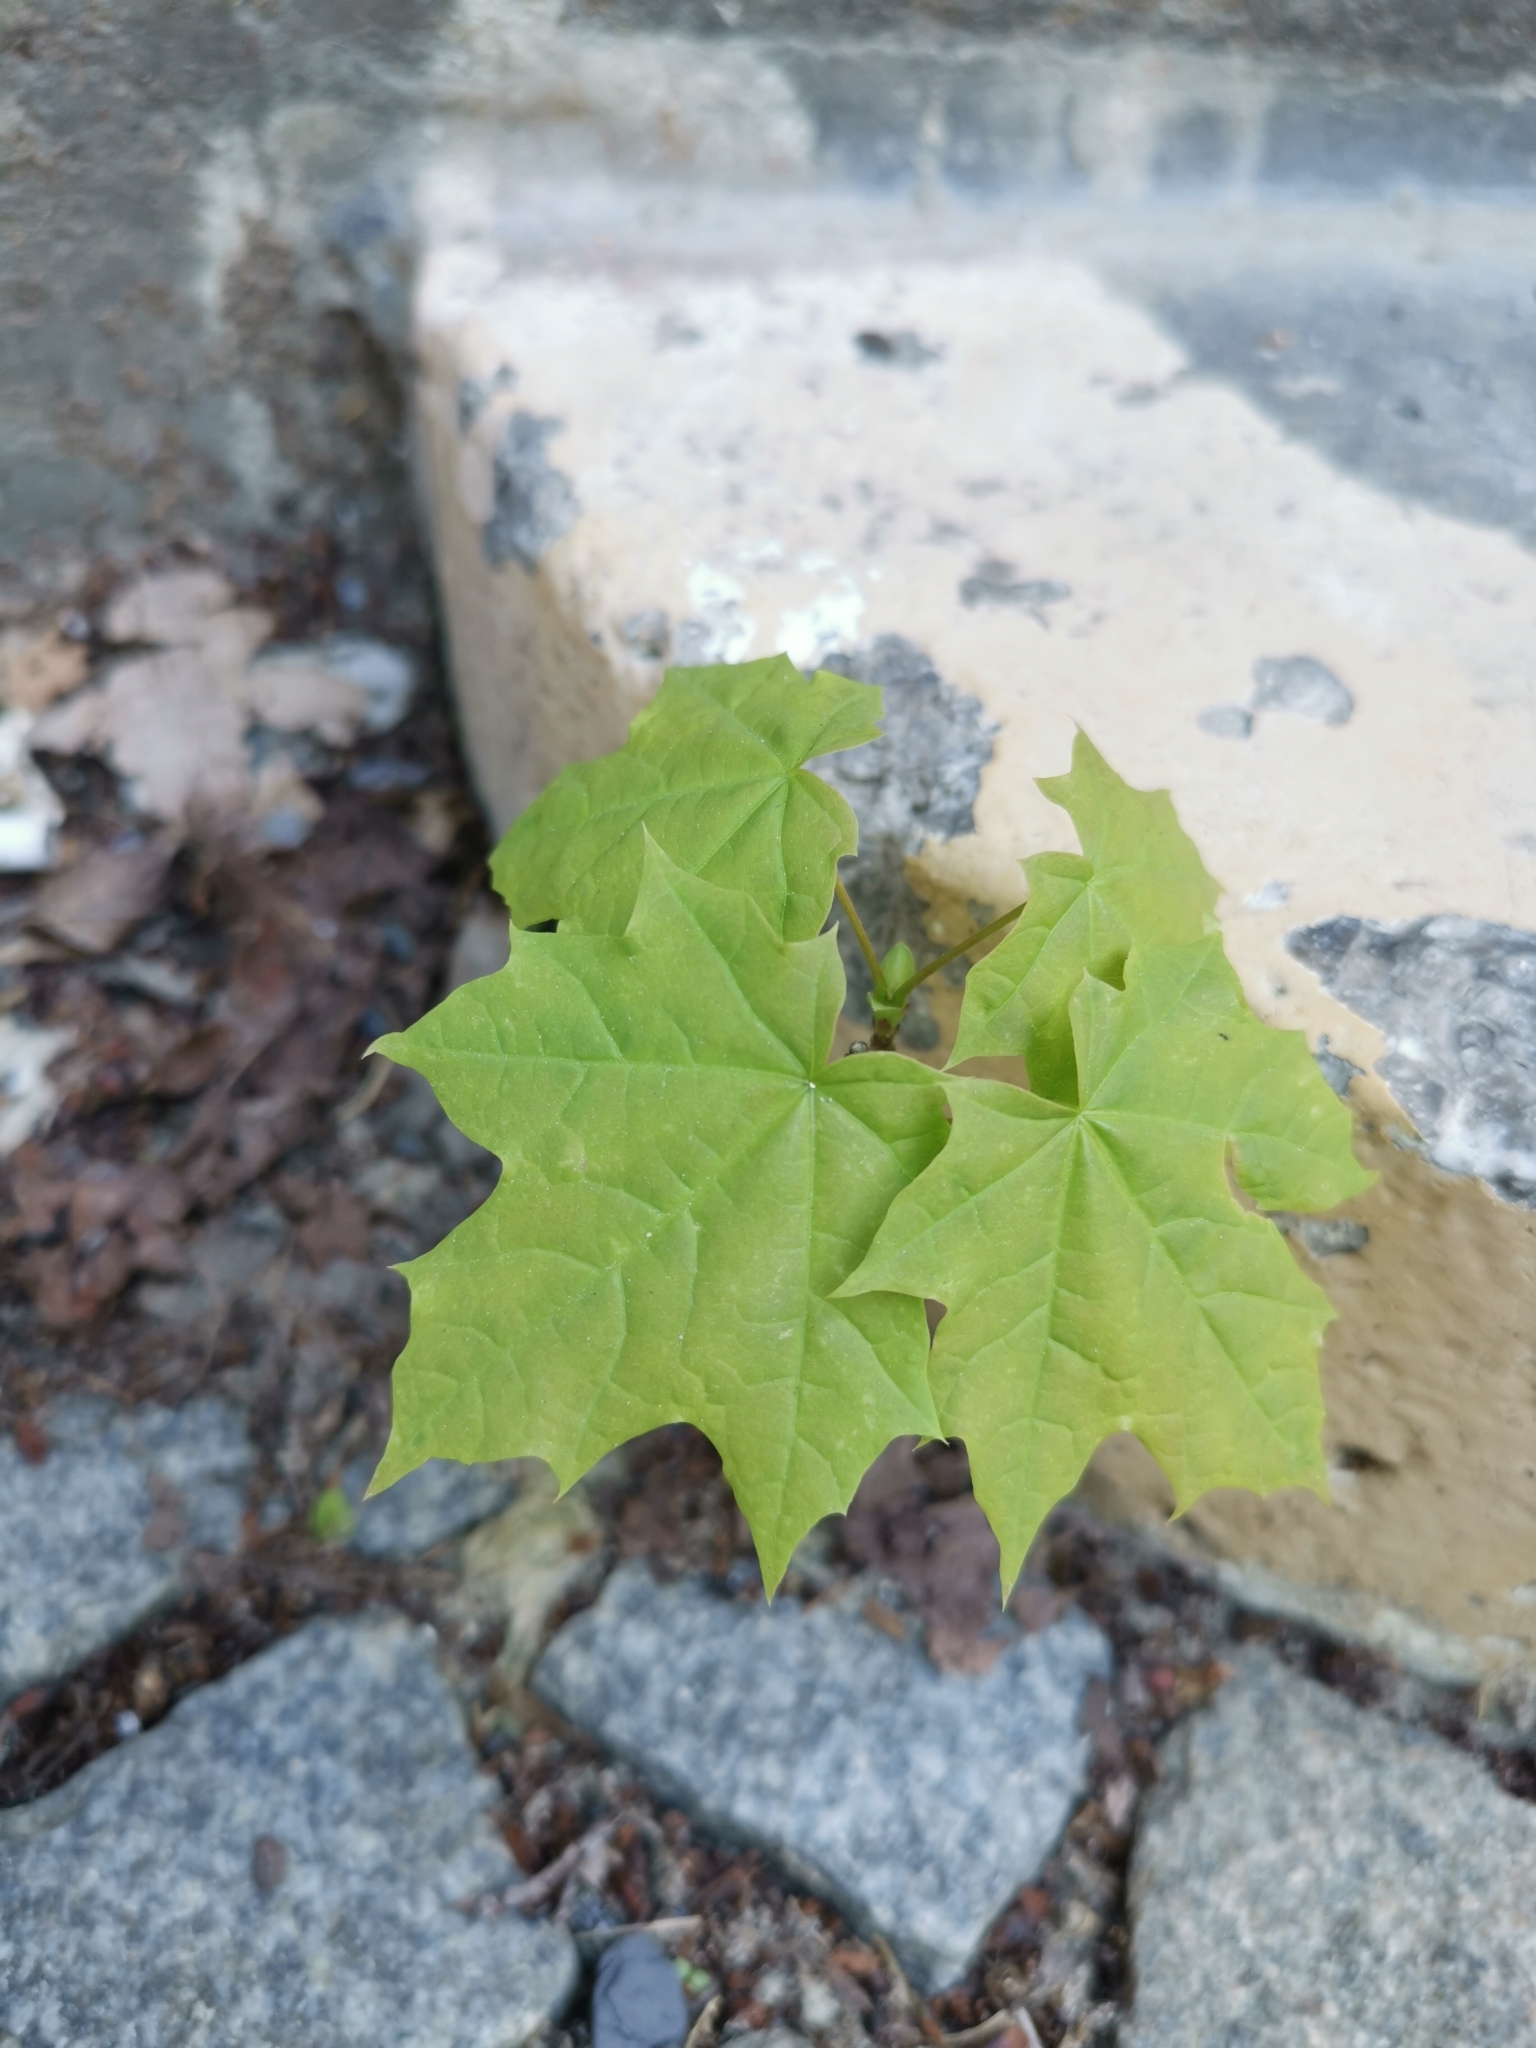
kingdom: Plantae
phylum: Tracheophyta
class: Magnoliopsida
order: Sapindales
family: Sapindaceae
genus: Acer
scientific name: Acer platanoides
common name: Norway maple
